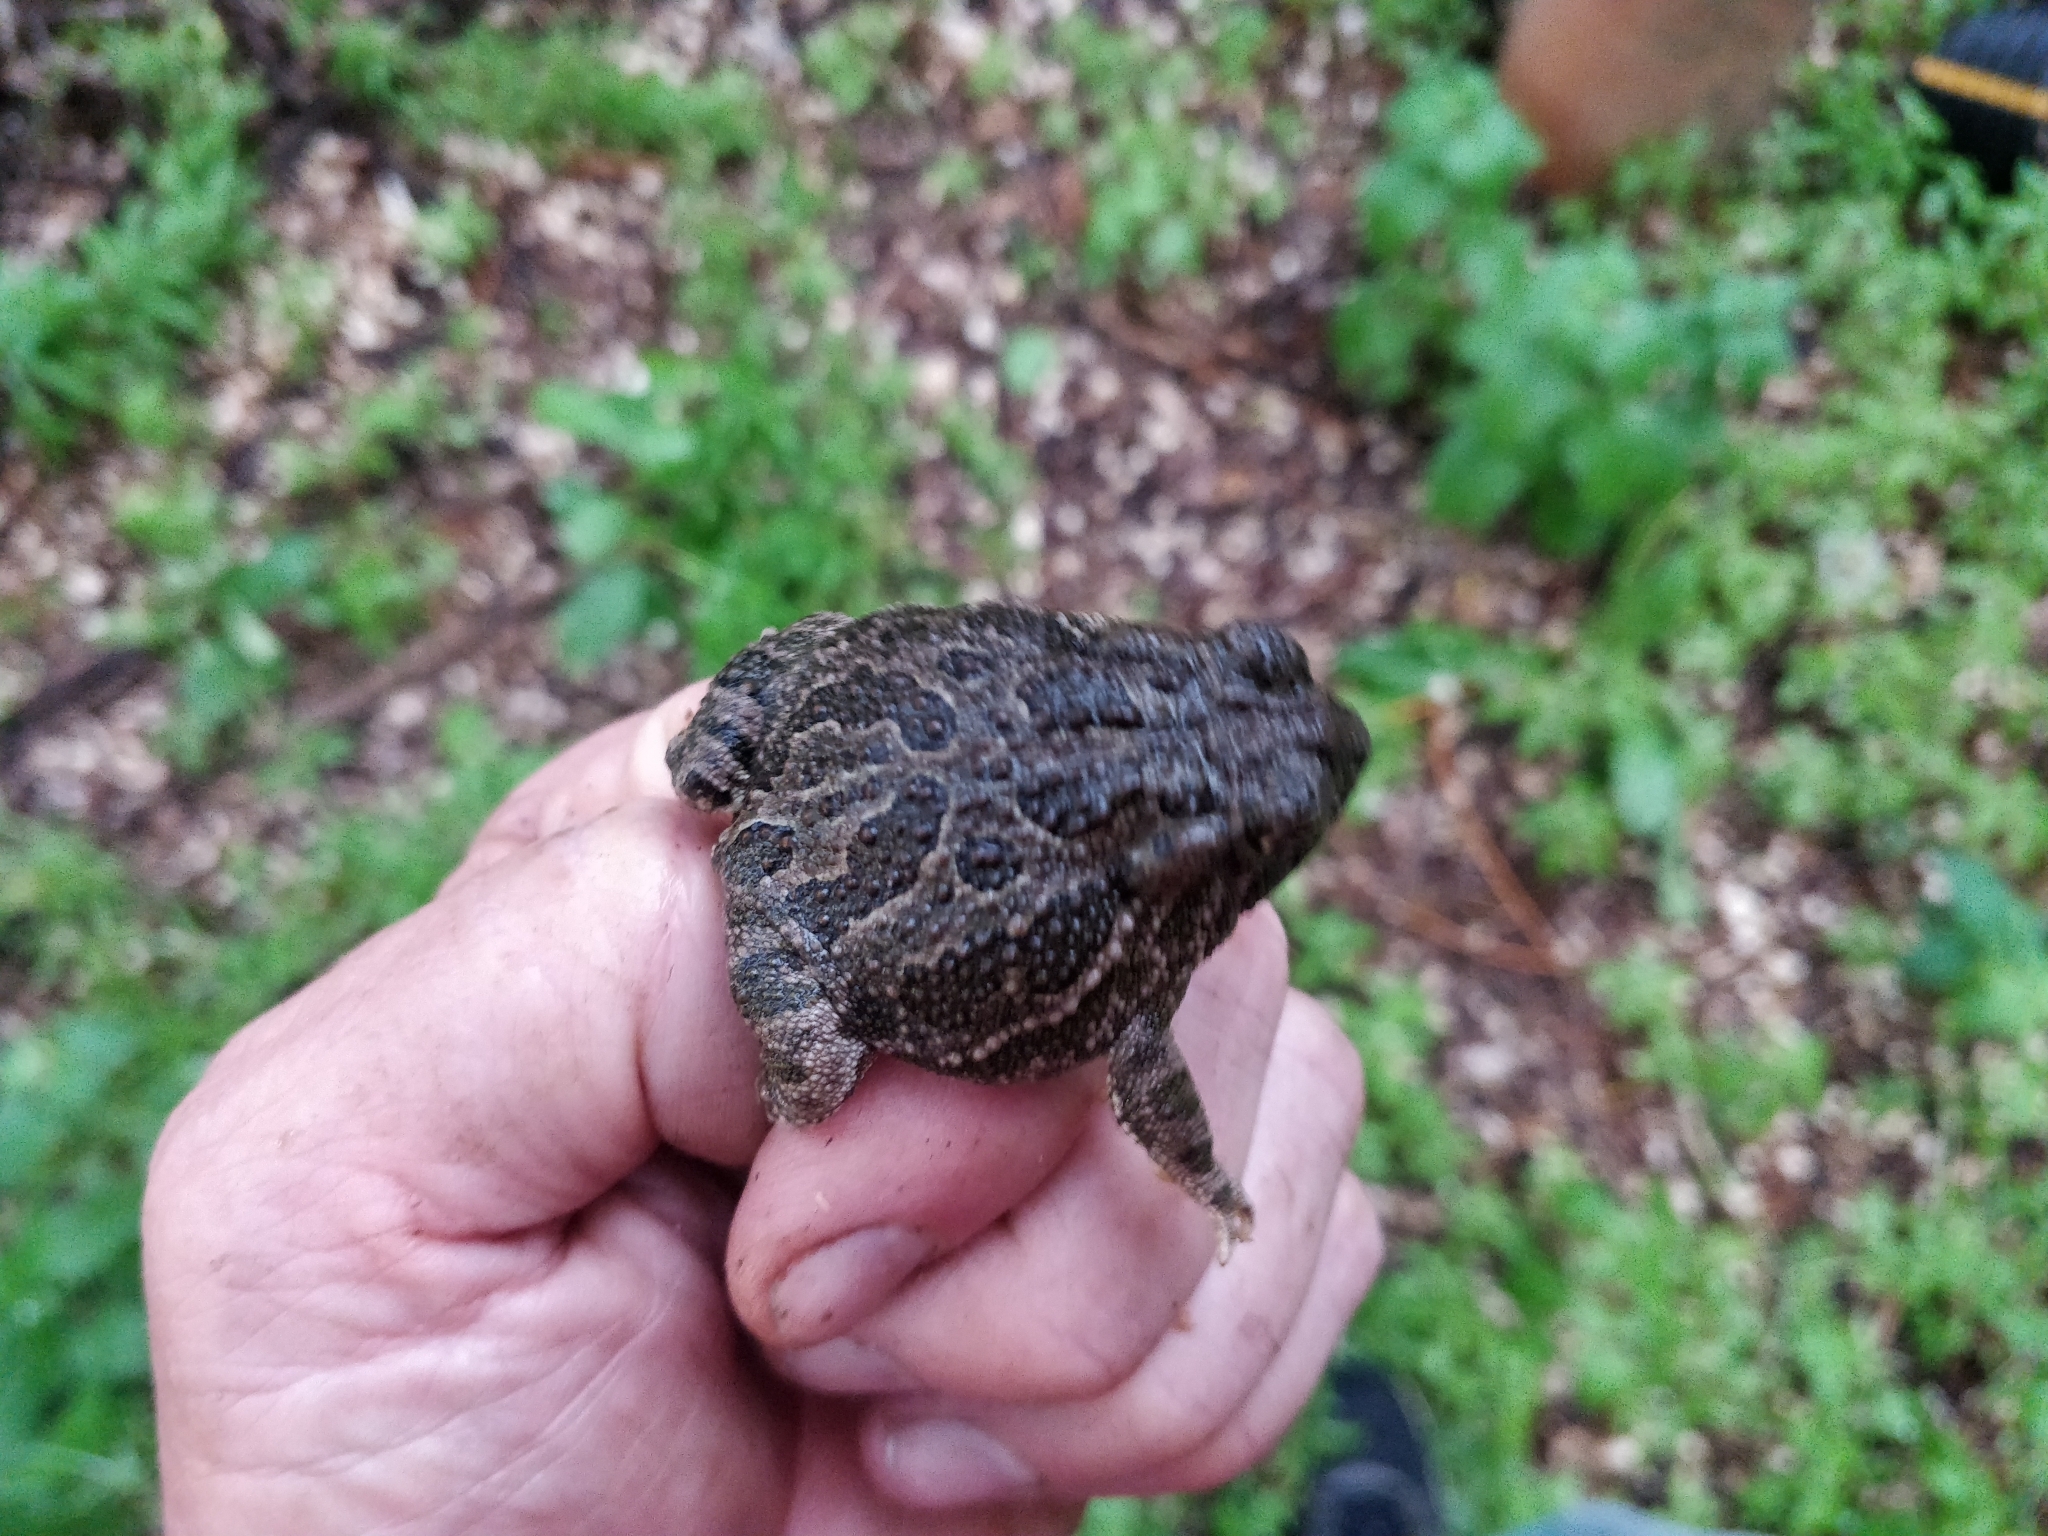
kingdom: Animalia
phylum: Chordata
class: Amphibia
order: Anura
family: Bufonidae
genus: Anaxyrus
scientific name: Anaxyrus cognatus
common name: Great plains toad
